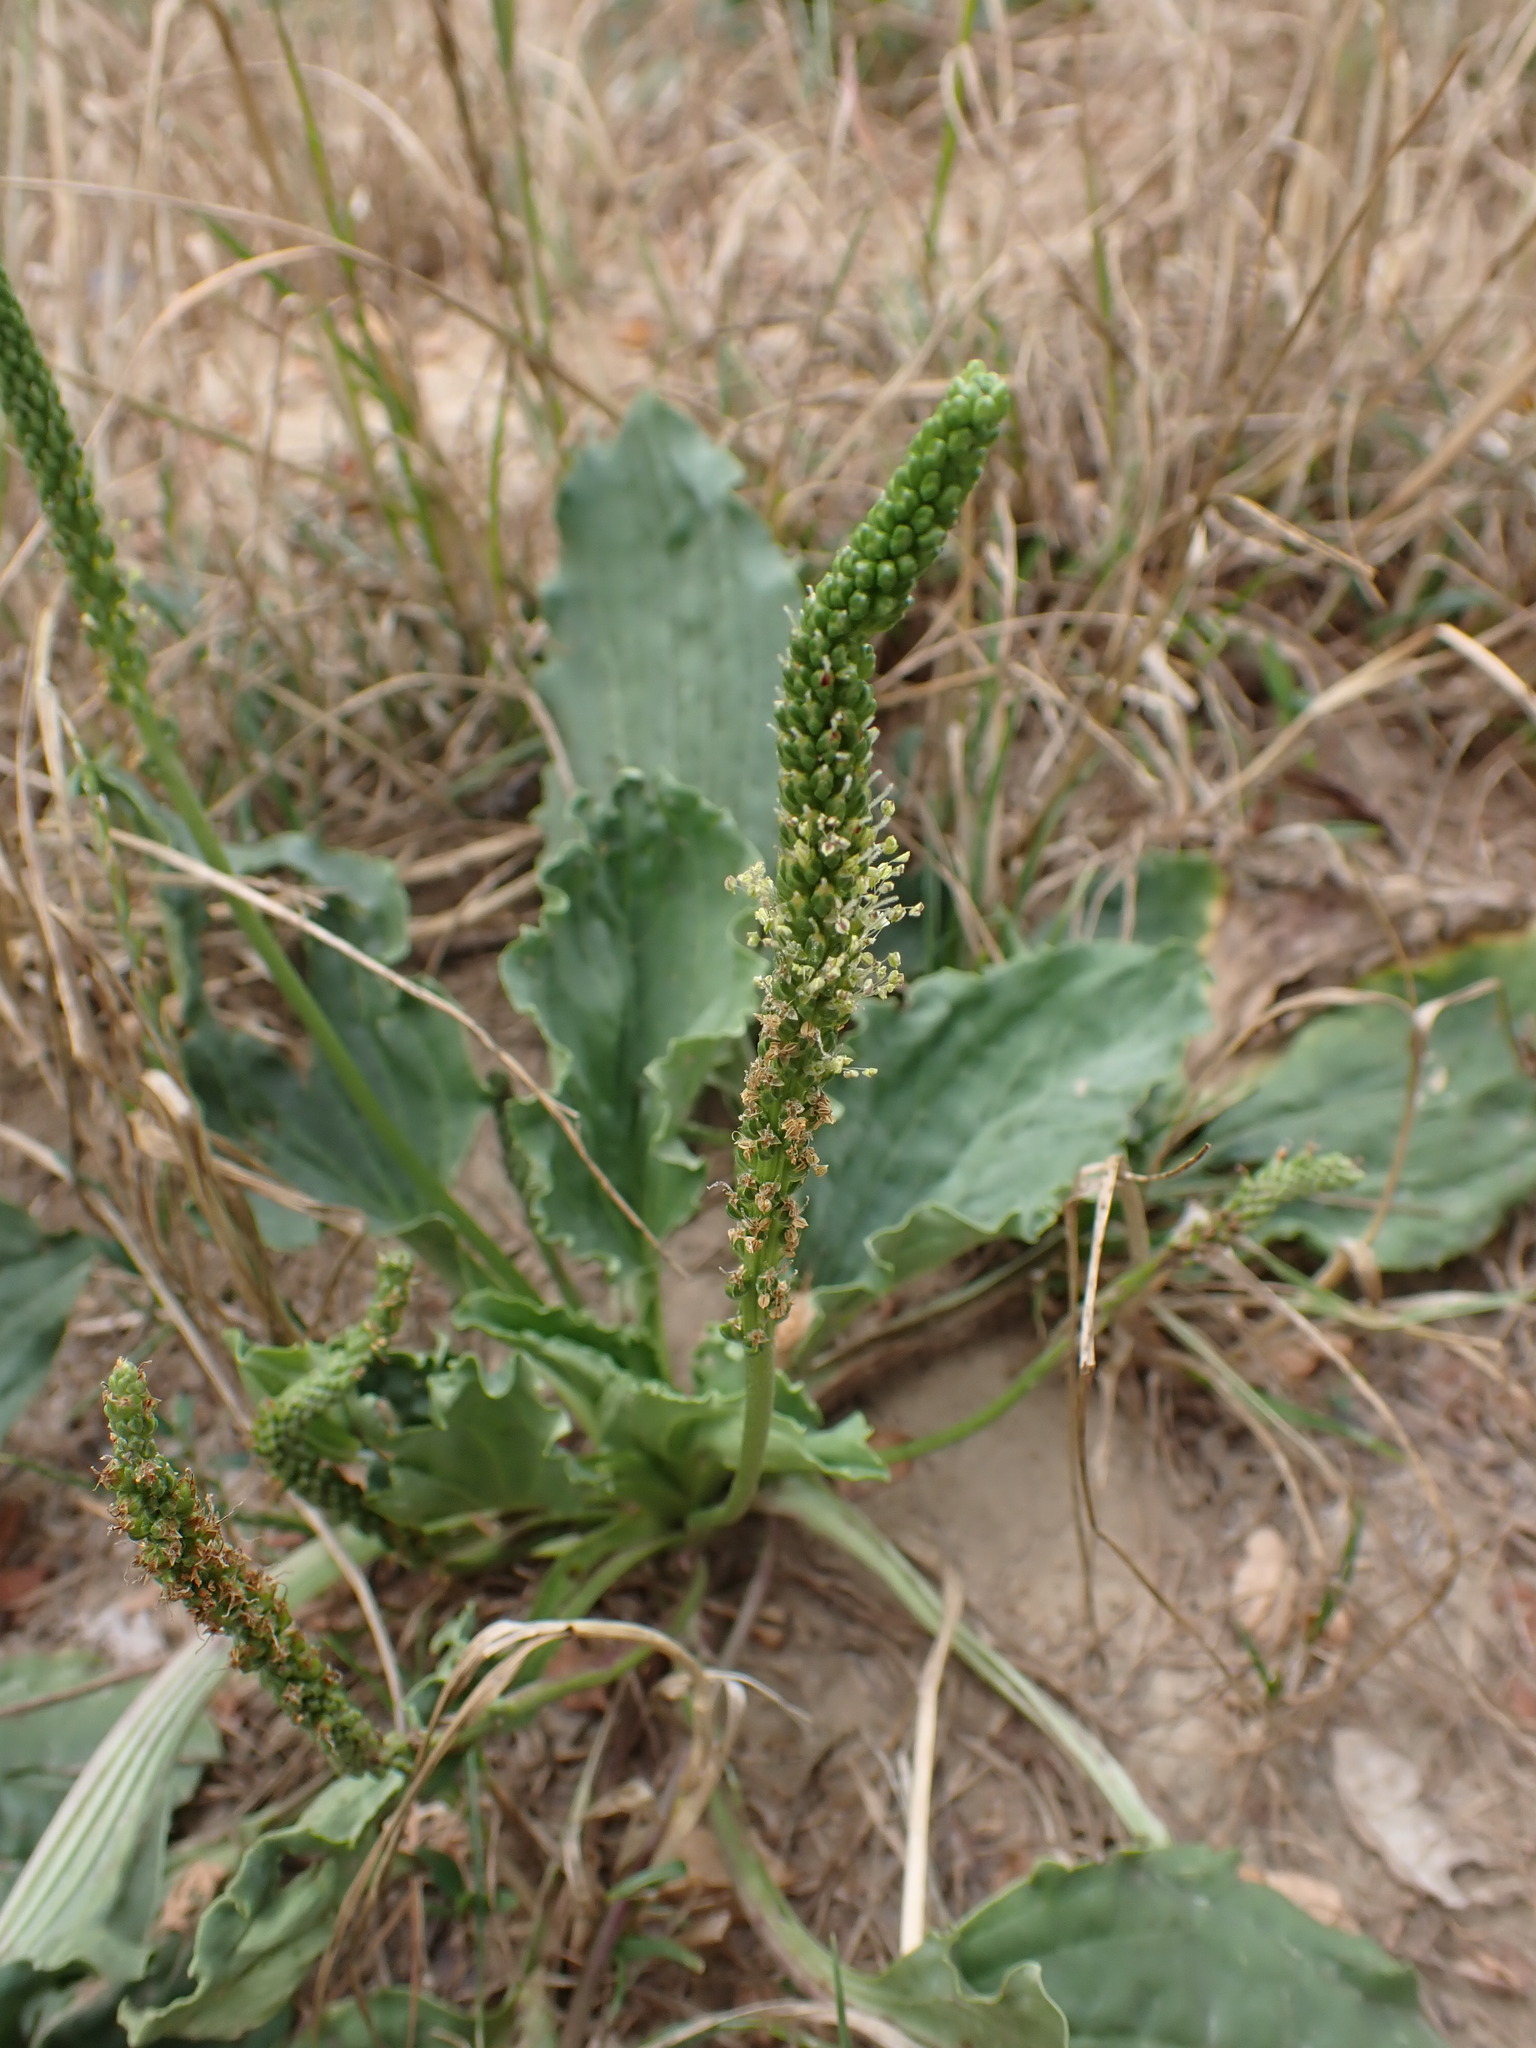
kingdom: Plantae
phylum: Tracheophyta
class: Magnoliopsida
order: Lamiales
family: Plantaginaceae
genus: Plantago
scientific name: Plantago major
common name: Common plantain
